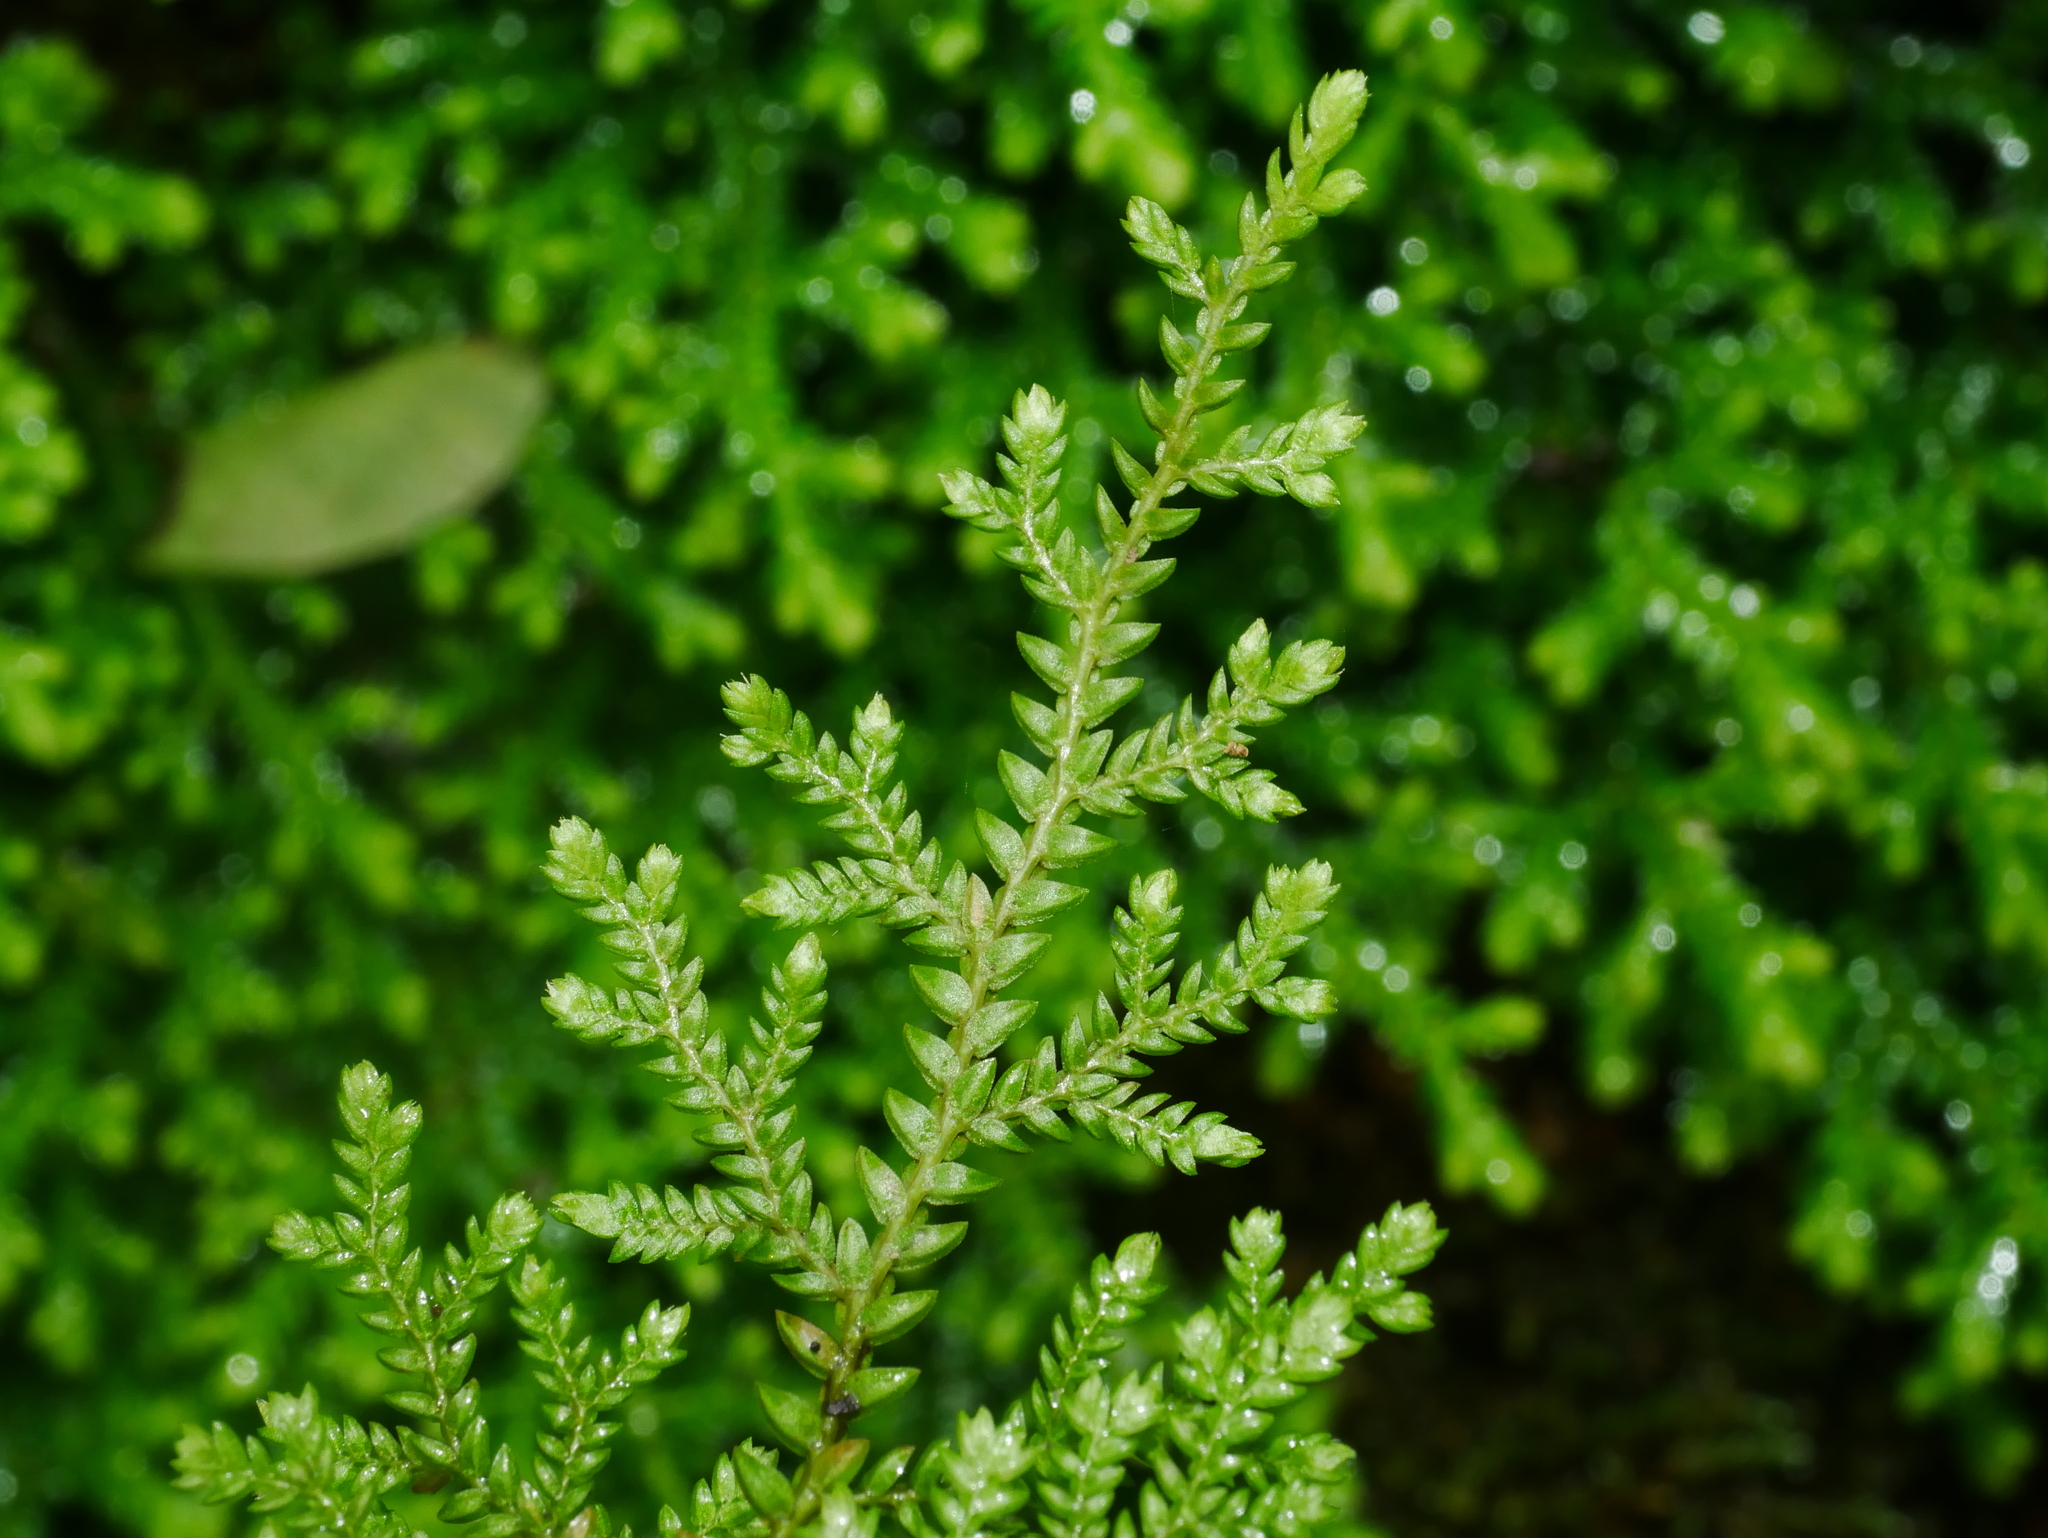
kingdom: Plantae
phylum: Tracheophyta
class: Lycopodiopsida
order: Selaginellales
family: Selaginellaceae
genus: Selaginella
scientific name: Selaginella labordei
